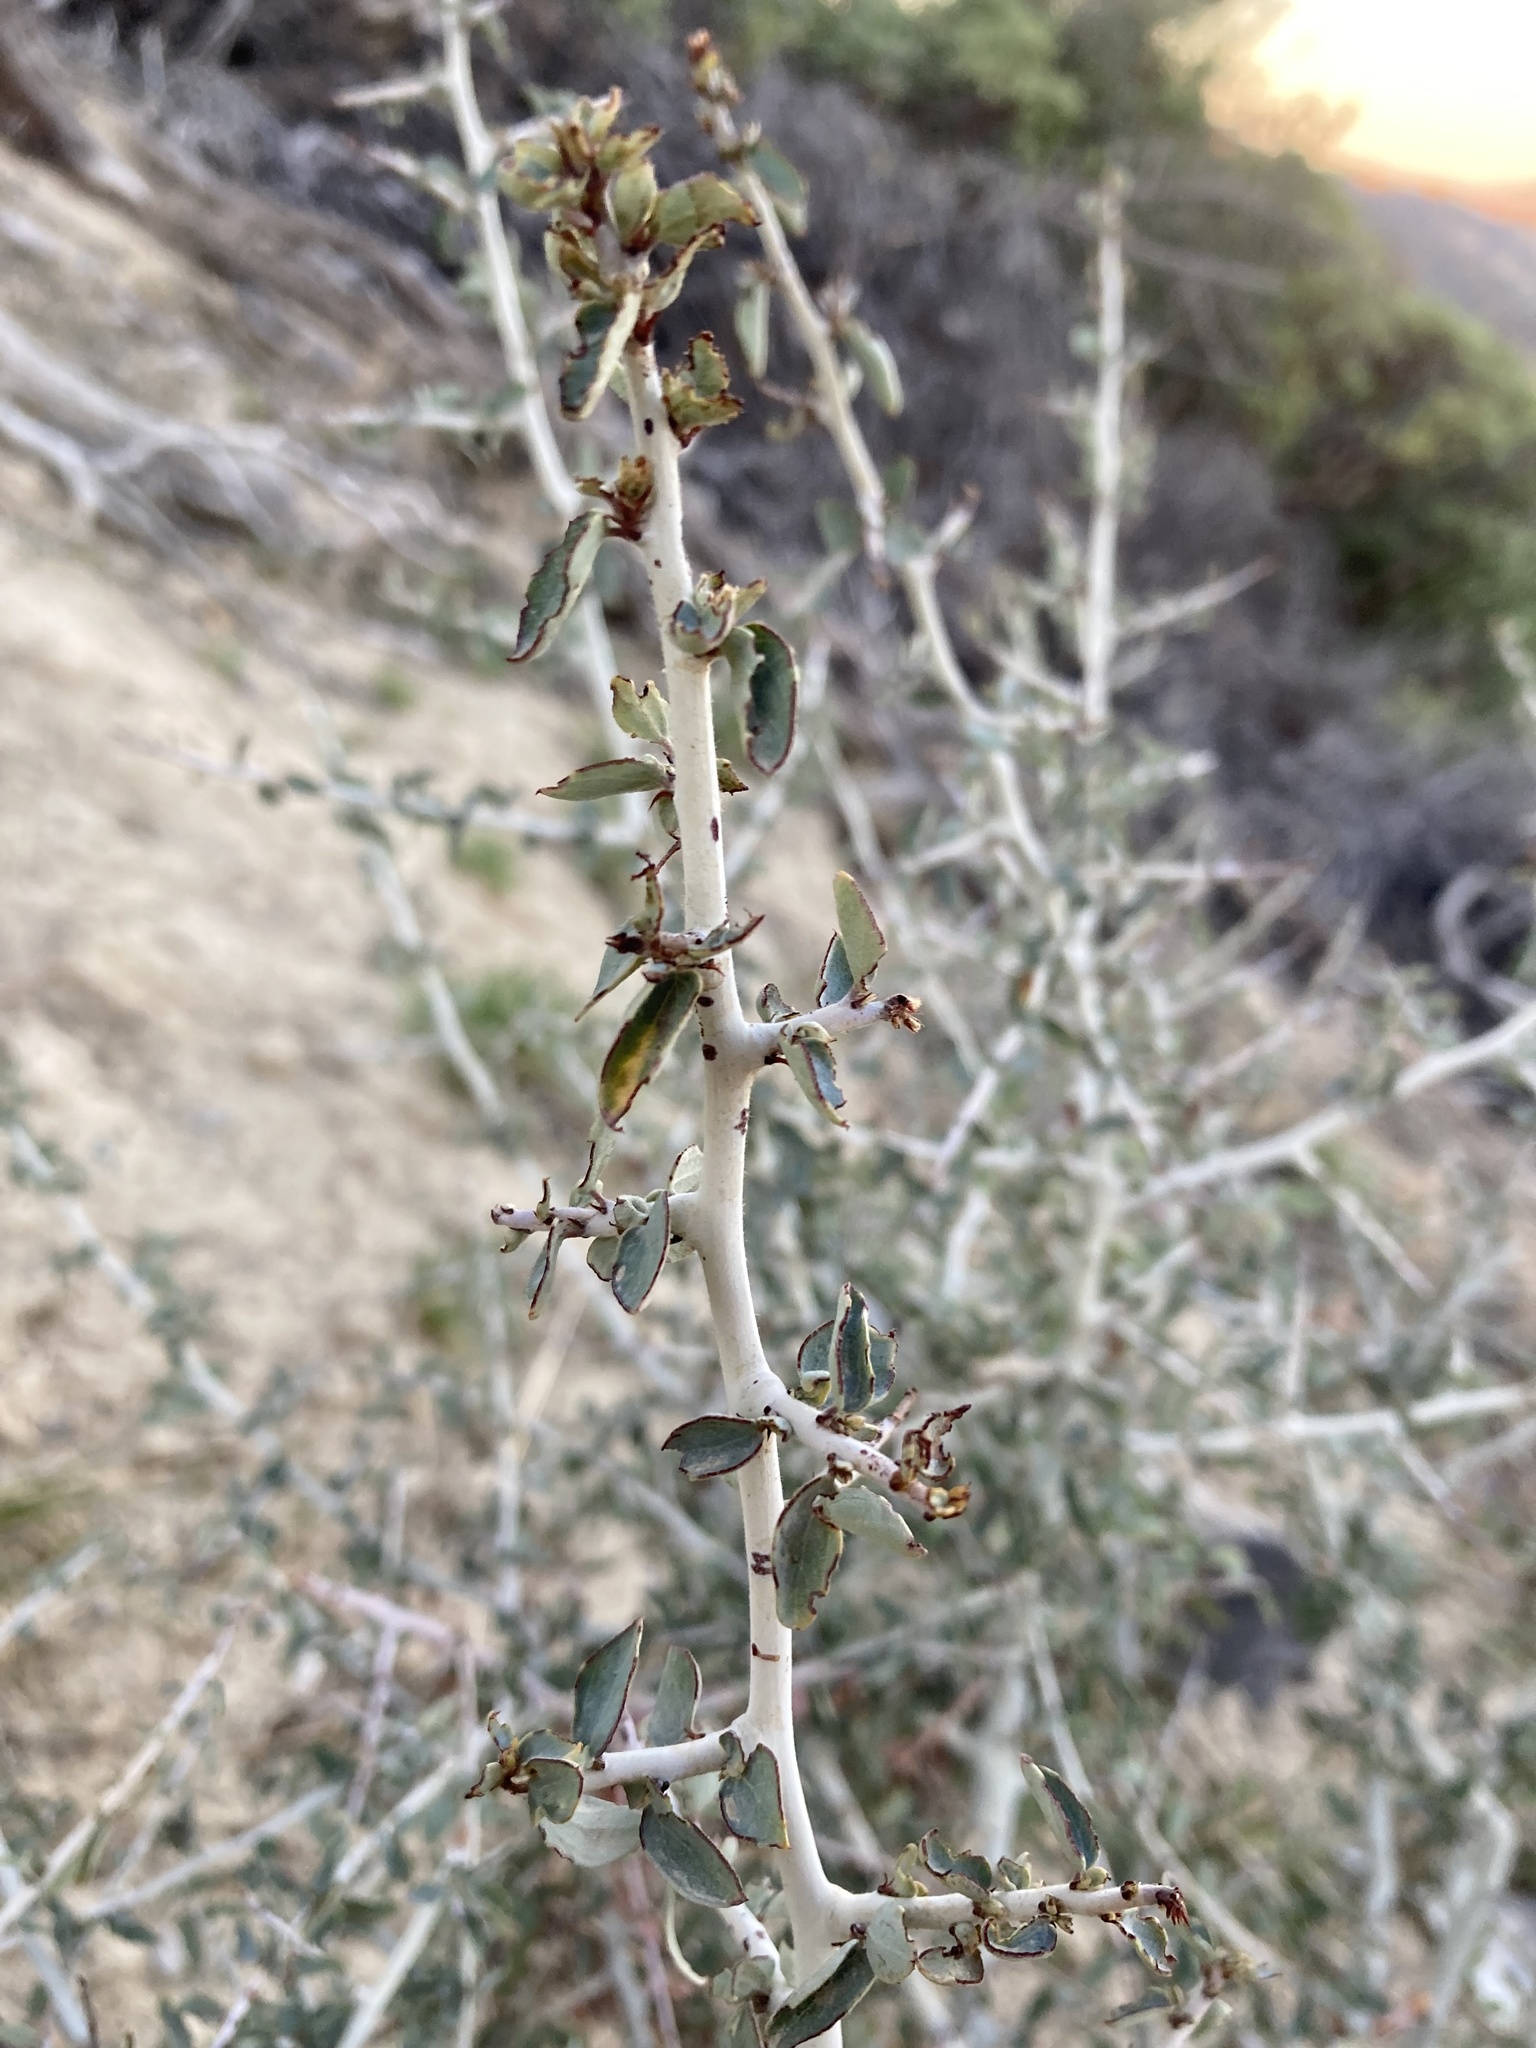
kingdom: Plantae
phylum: Tracheophyta
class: Magnoliopsida
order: Rosales
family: Rhamnaceae
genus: Ceanothus
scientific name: Ceanothus leucodermis
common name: Chaparral whitethorn
